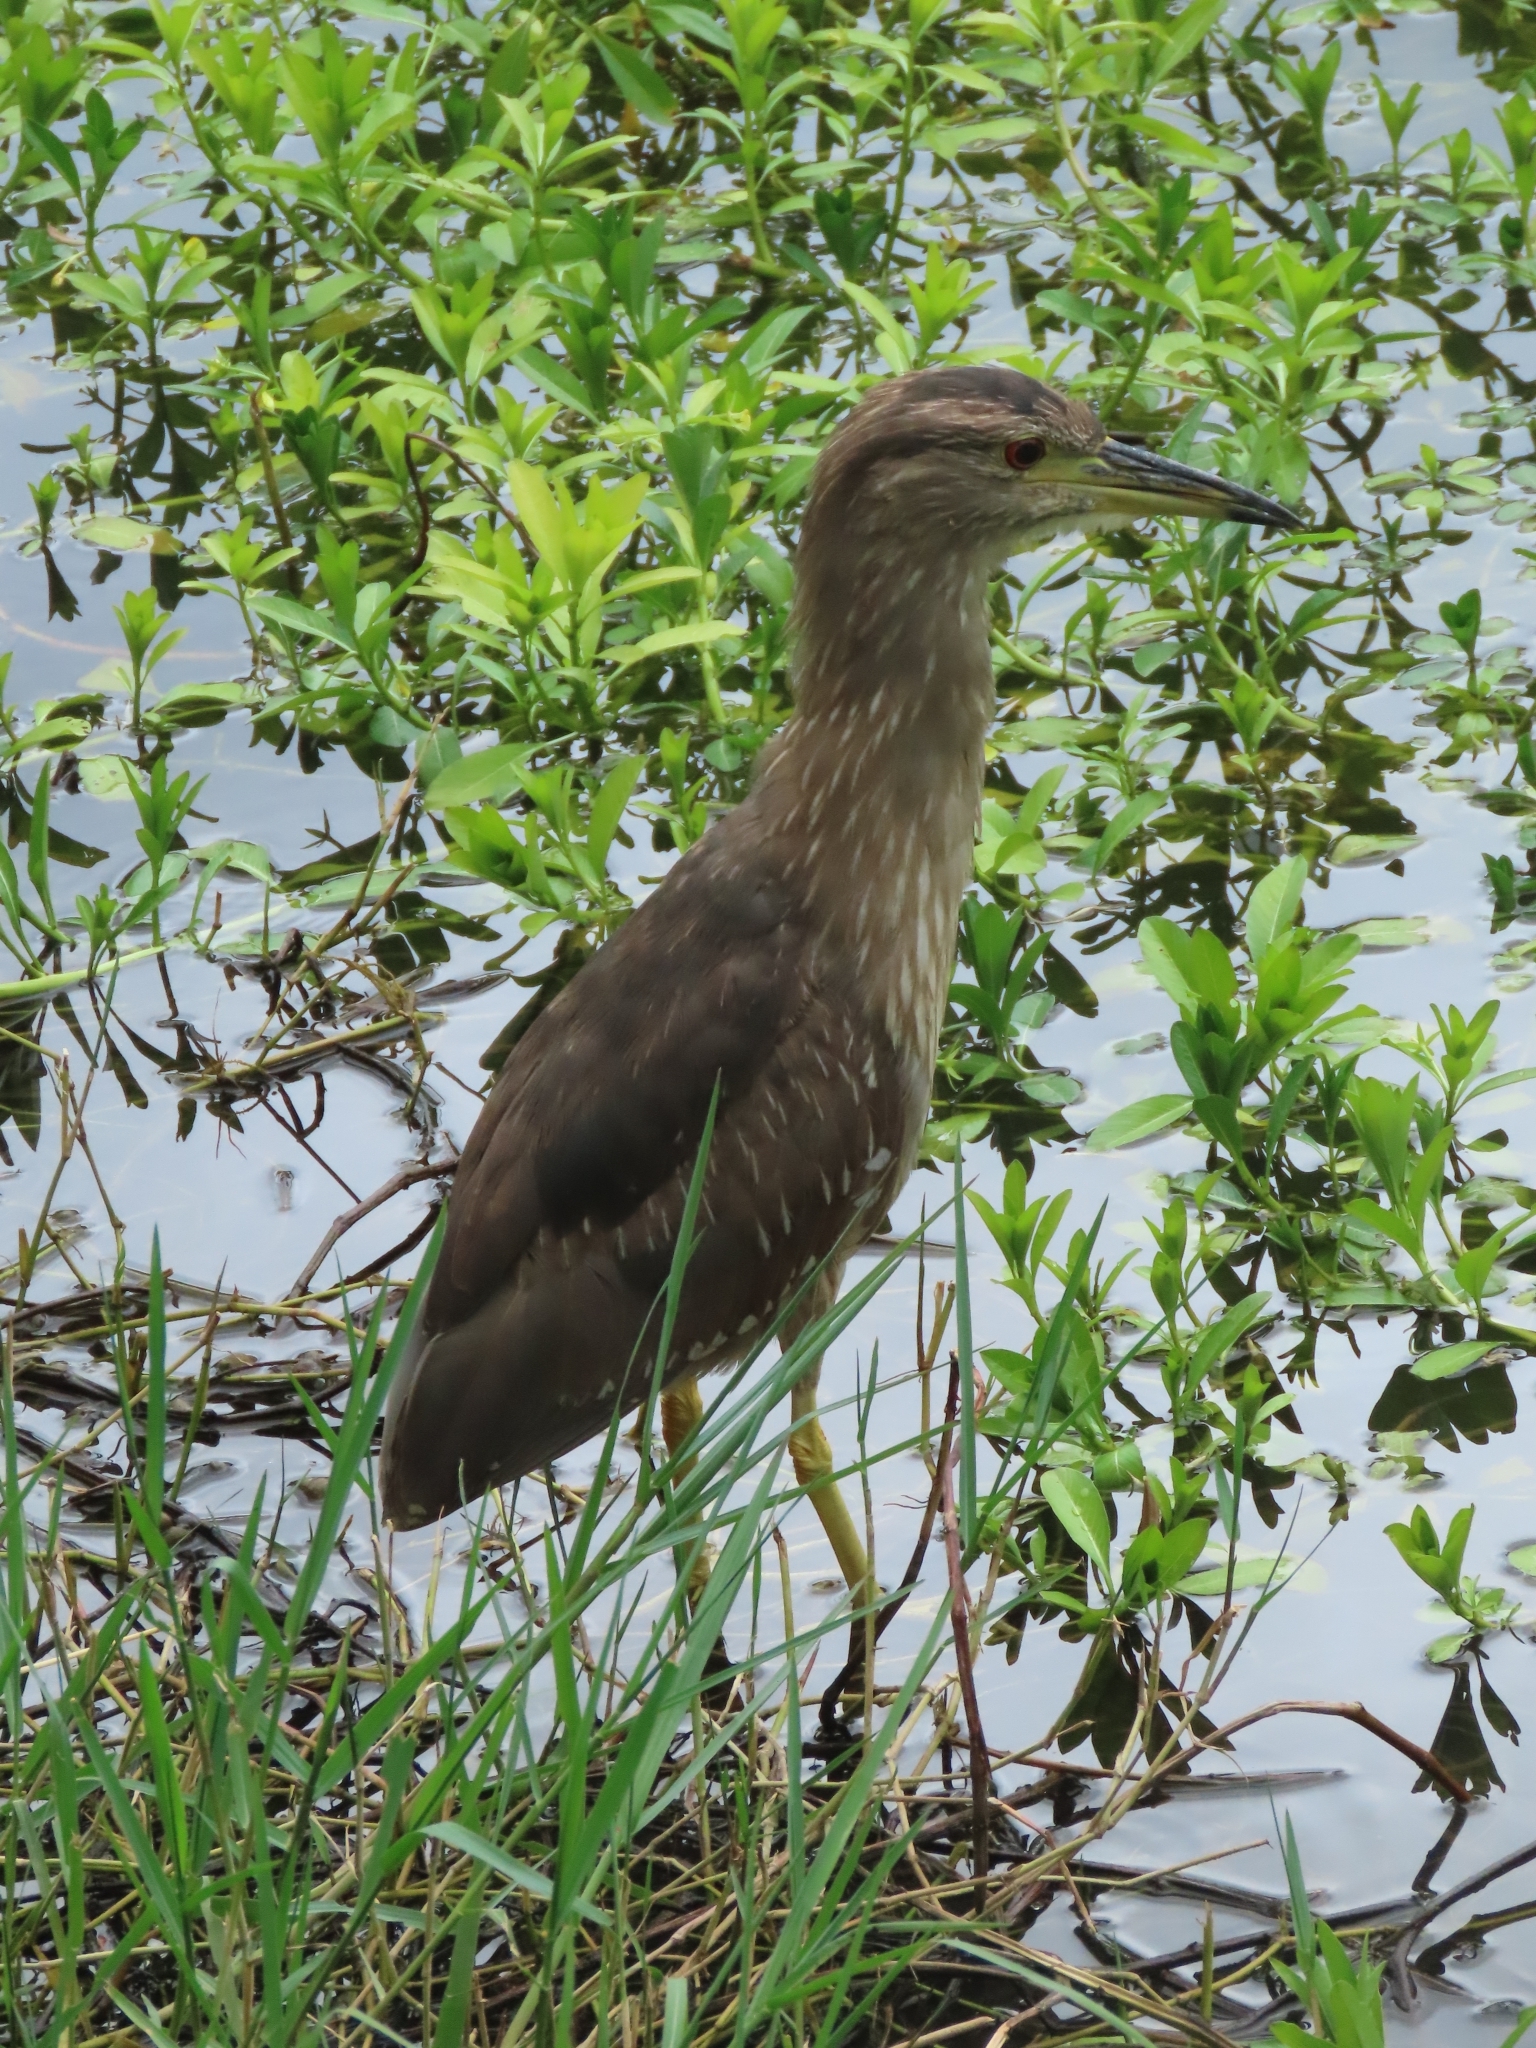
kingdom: Animalia
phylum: Chordata
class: Aves
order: Pelecaniformes
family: Ardeidae
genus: Nycticorax
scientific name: Nycticorax nycticorax
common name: Black-crowned night heron
